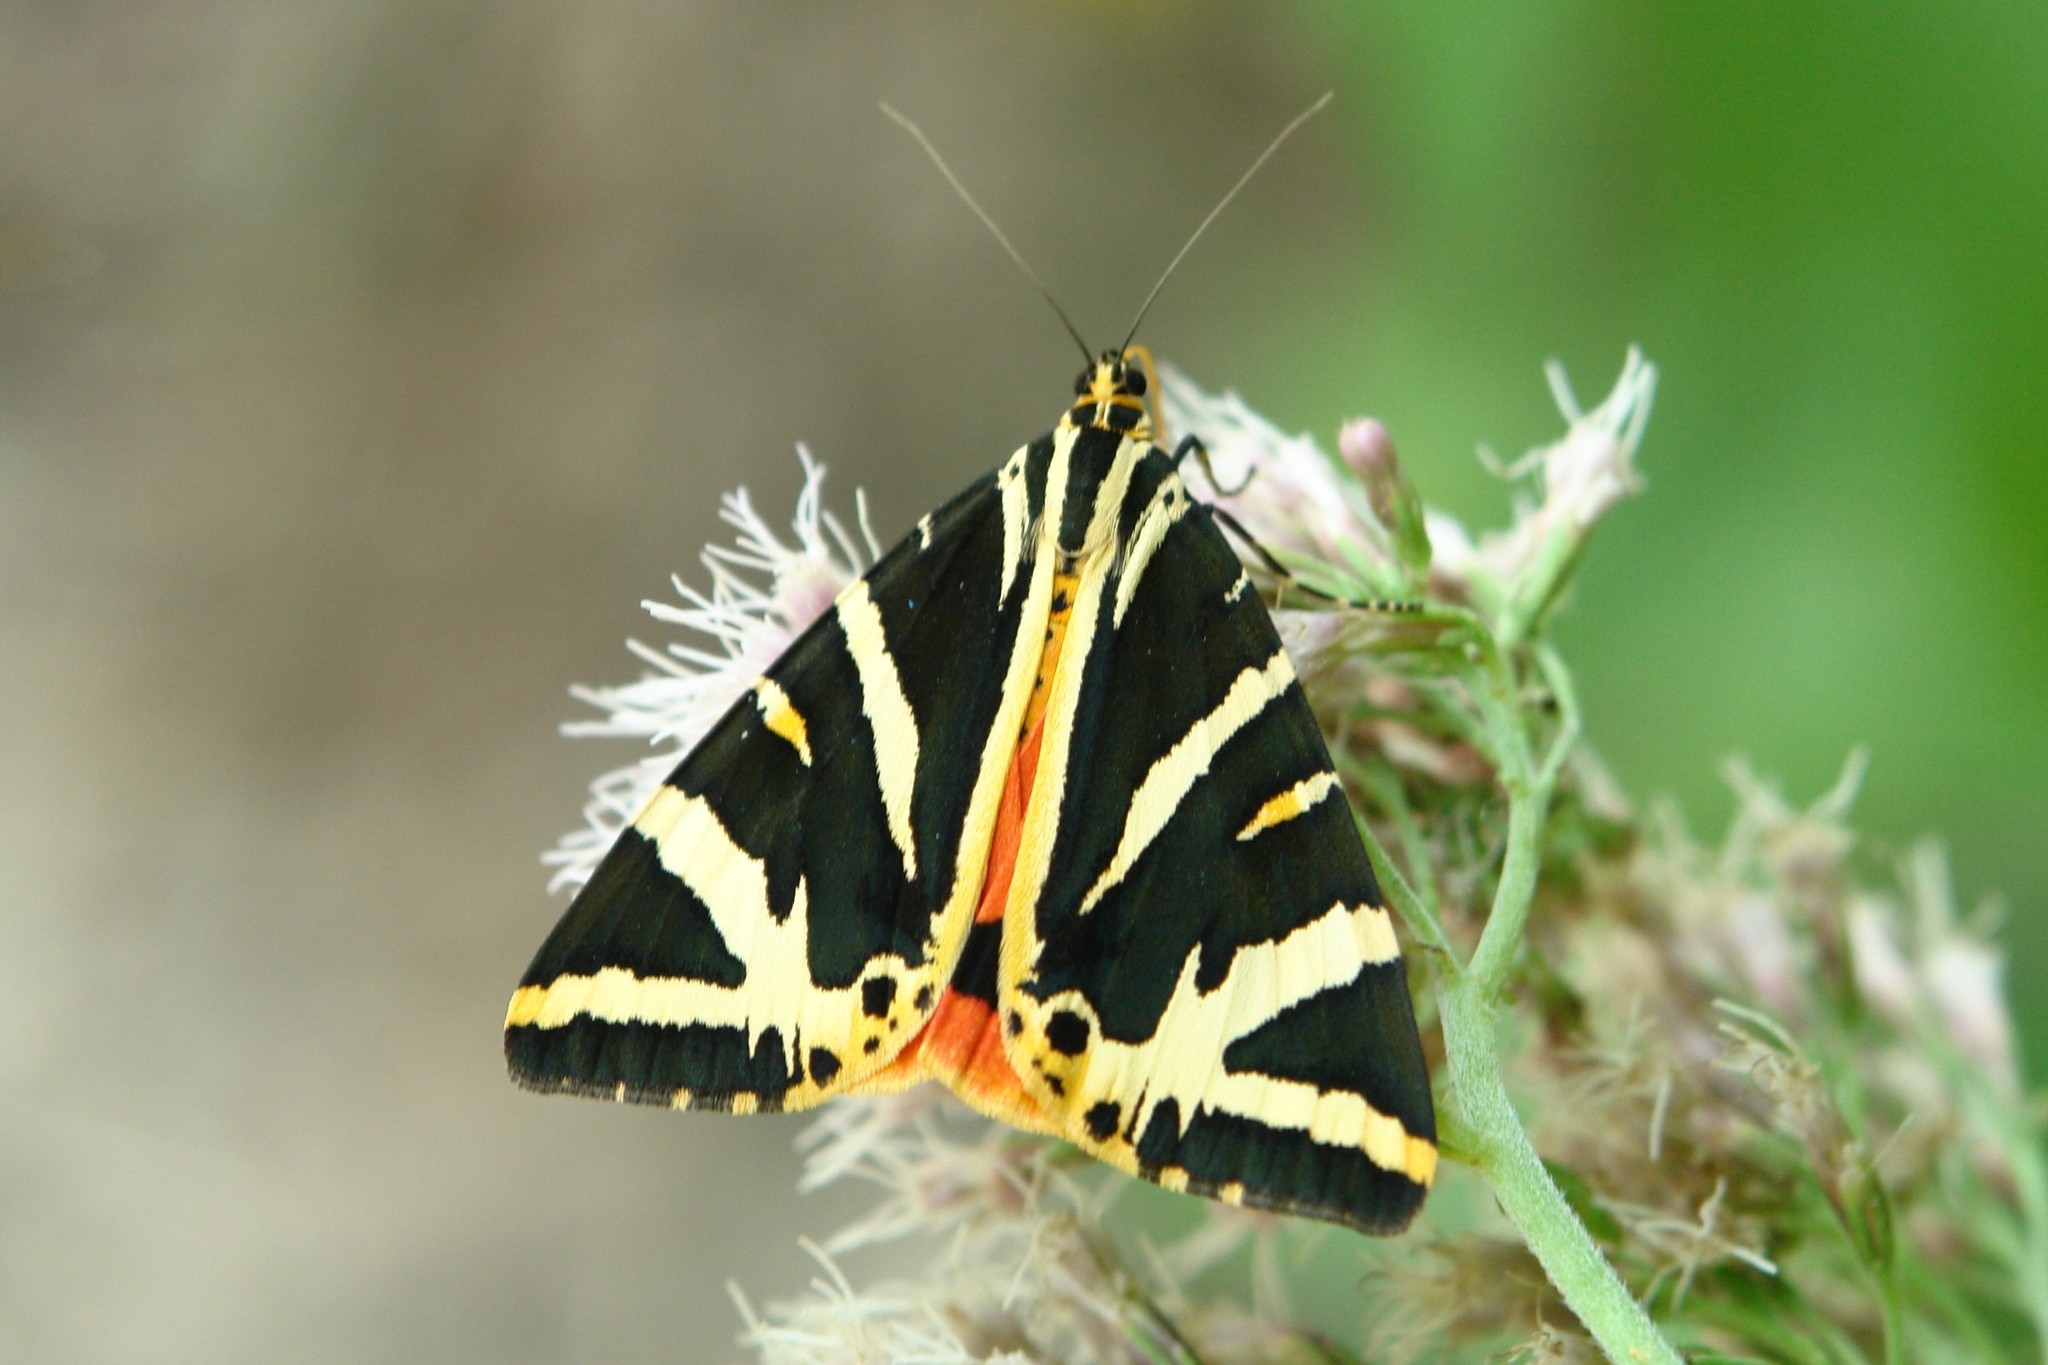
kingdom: Animalia
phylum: Arthropoda
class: Insecta
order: Lepidoptera
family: Erebidae
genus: Euplagia
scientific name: Euplagia quadripunctaria
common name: Jersey tiger
